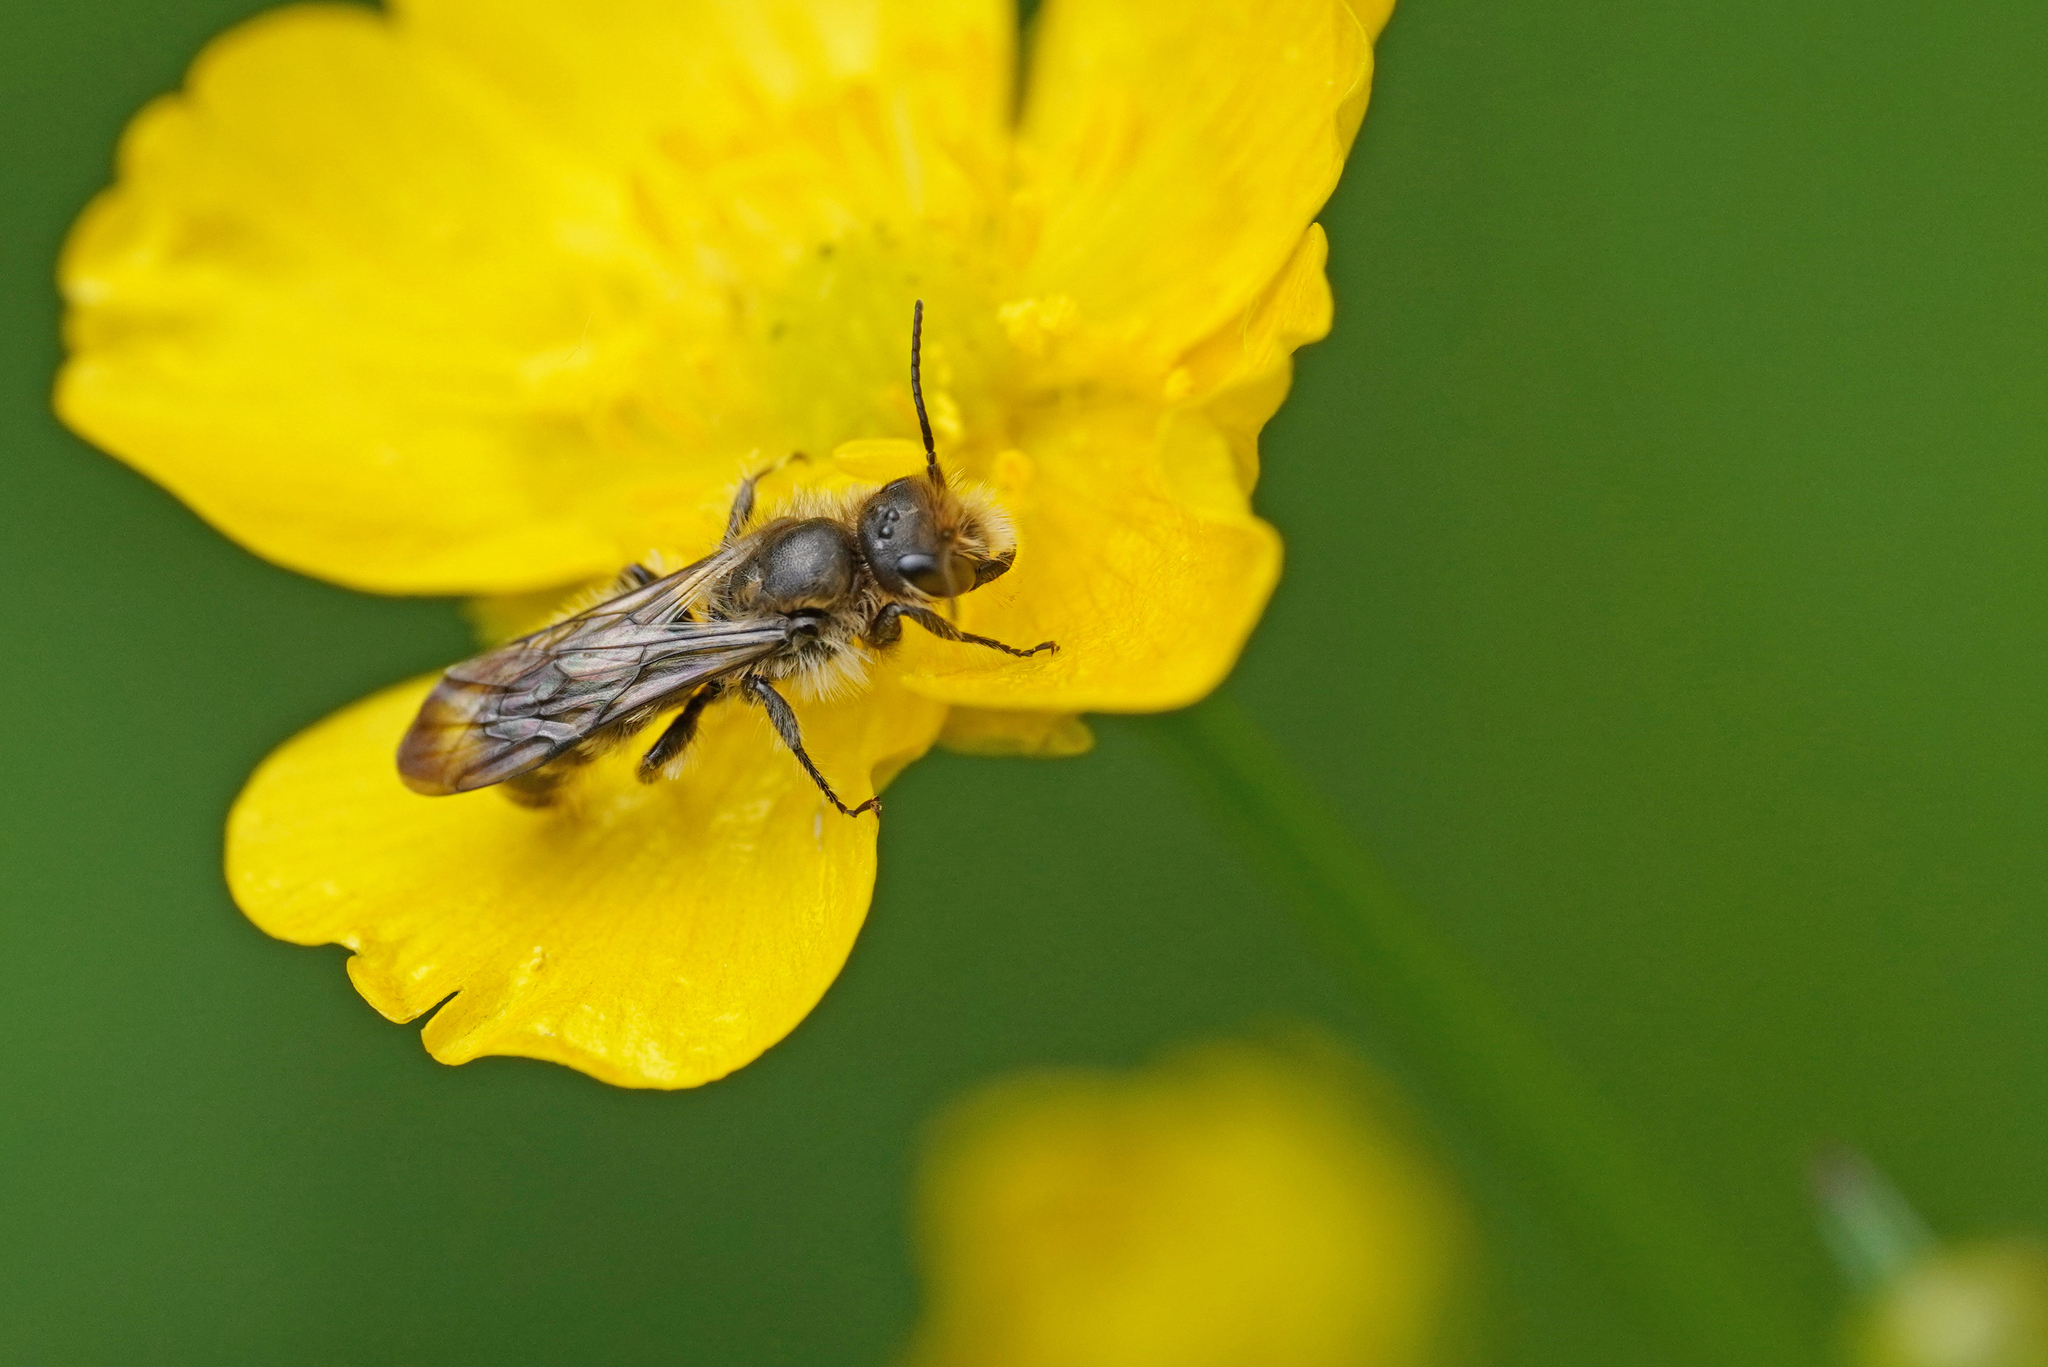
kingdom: Animalia
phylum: Arthropoda
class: Insecta
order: Hymenoptera
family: Megachilidae
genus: Chelostoma
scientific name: Chelostoma florisomne
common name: Sleepy carpenter bee
